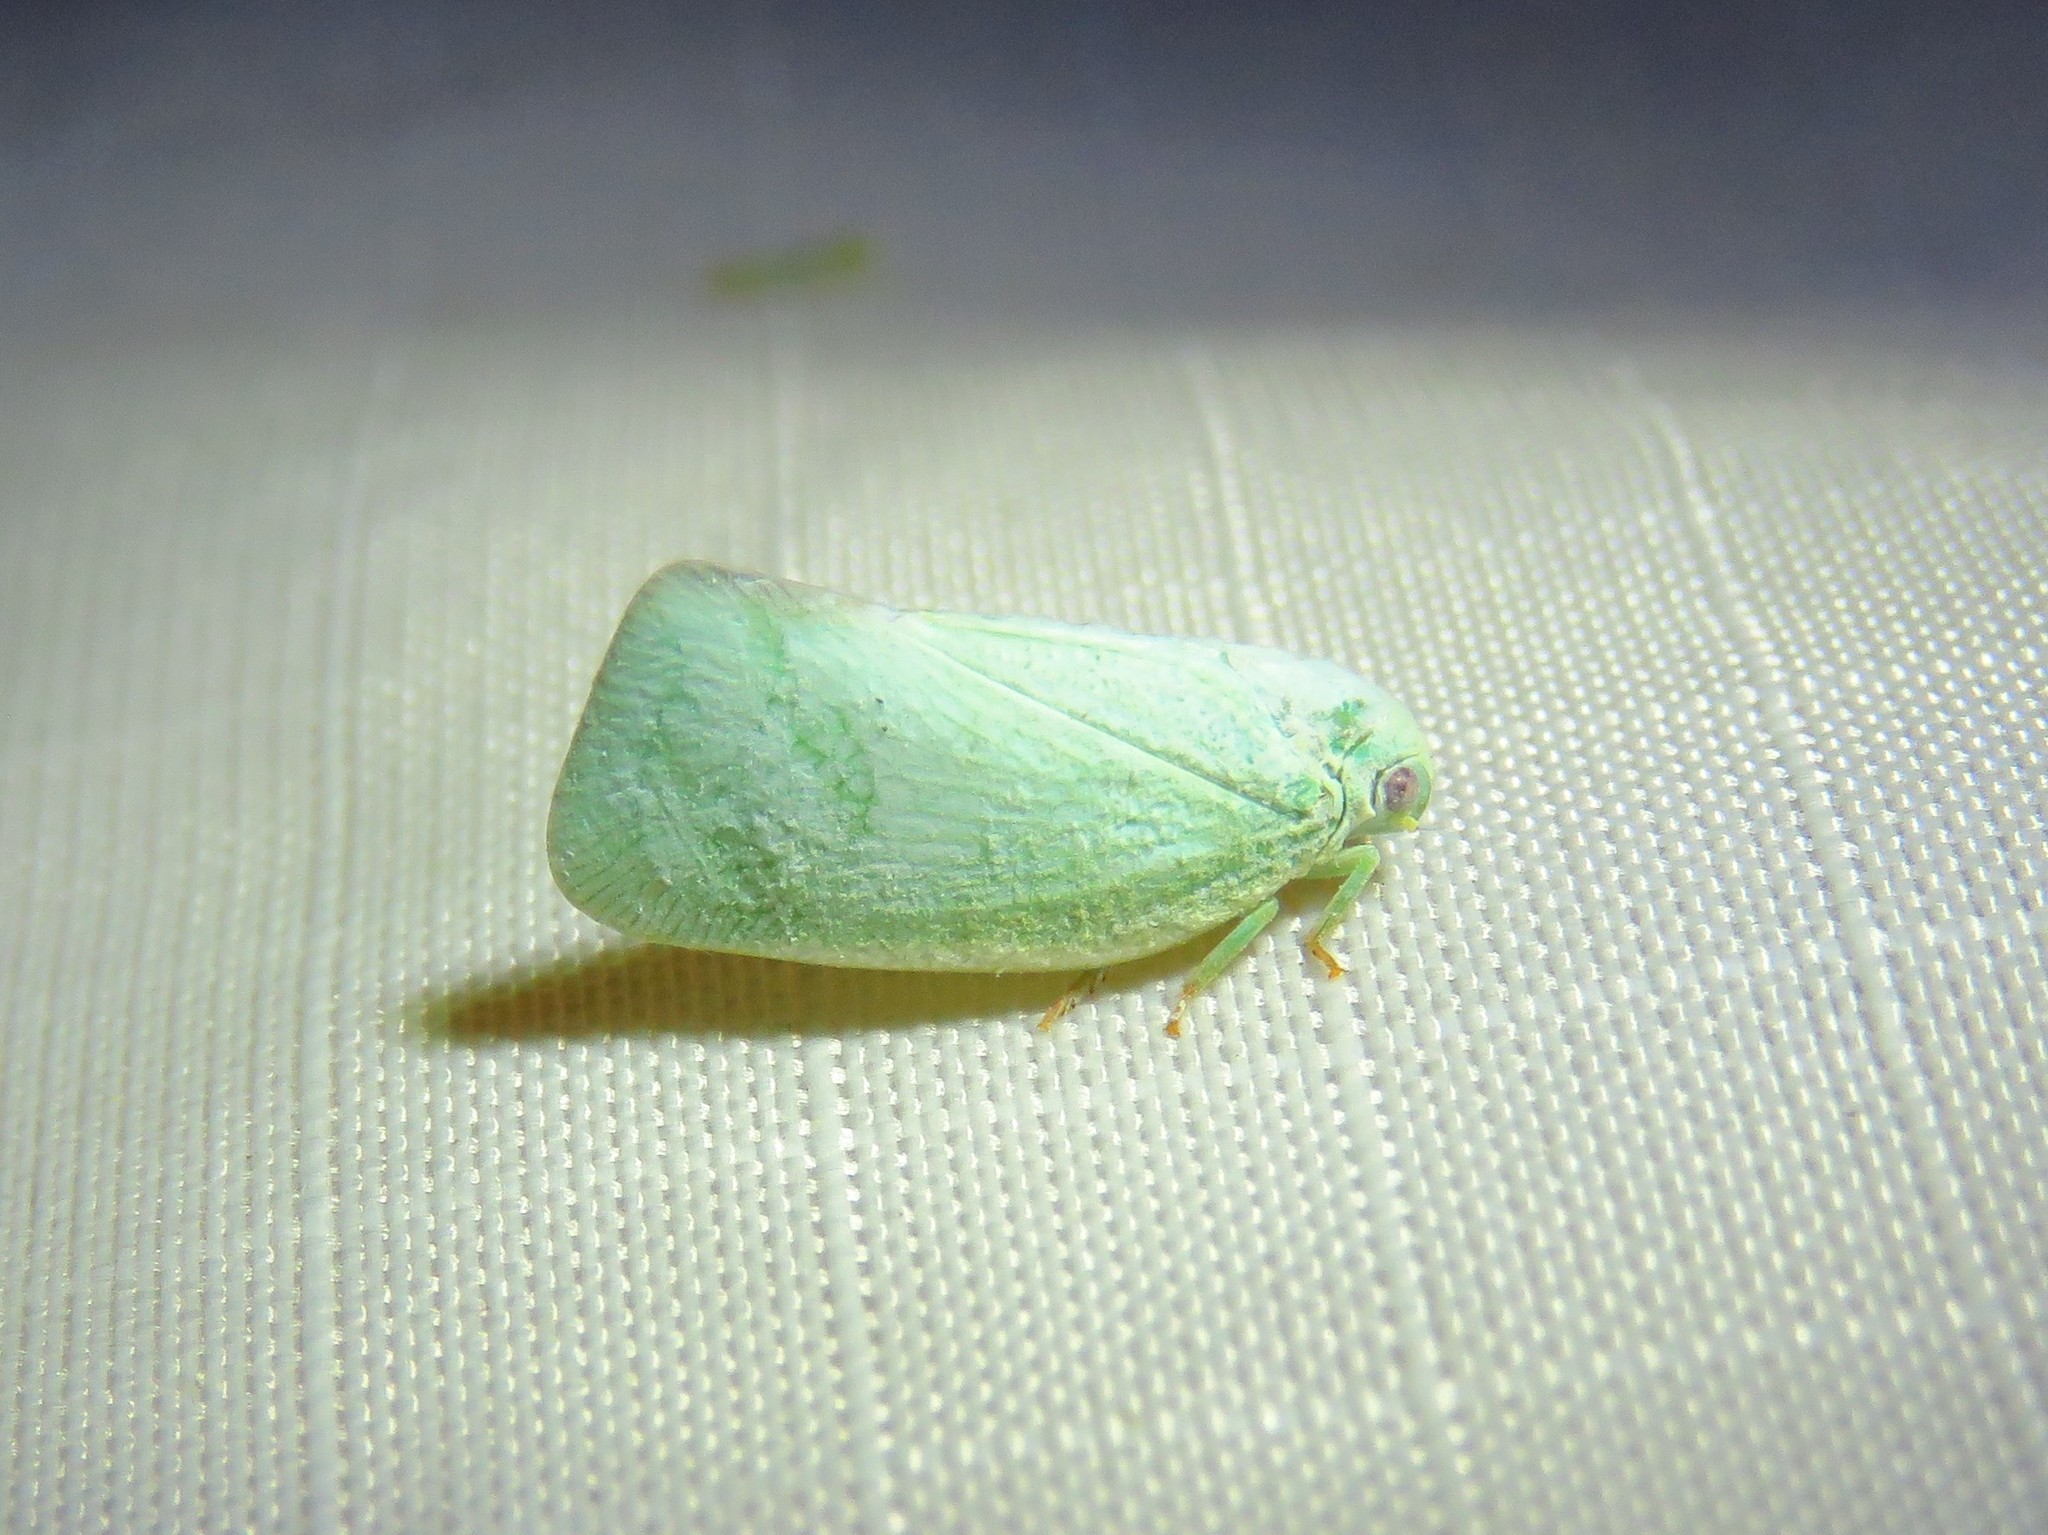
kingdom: Animalia
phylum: Arthropoda
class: Insecta
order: Hemiptera
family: Flatidae
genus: Flatormenis
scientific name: Flatormenis proxima
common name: Northern flatid planthopper
